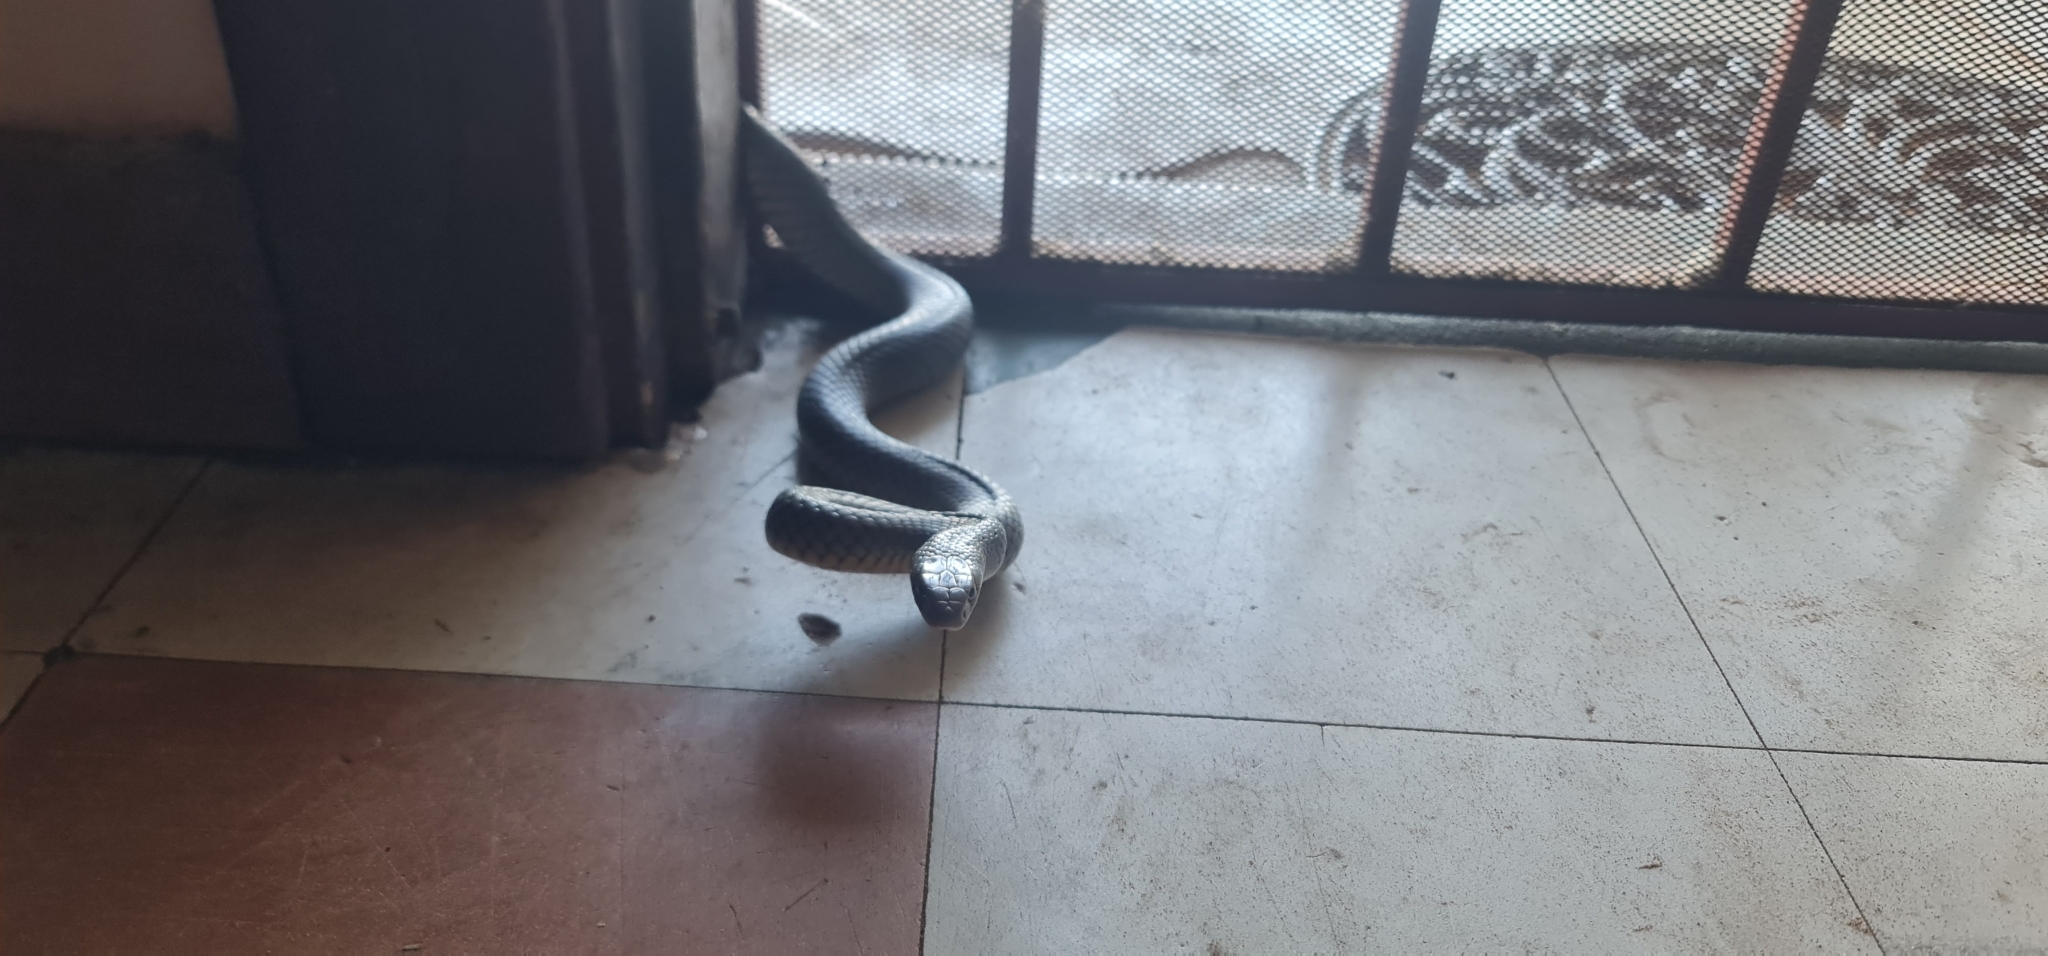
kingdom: Animalia
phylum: Chordata
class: Squamata
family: Elapidae
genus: Pseudonaja
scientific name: Pseudonaja textilis
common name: Eastern brown snake
